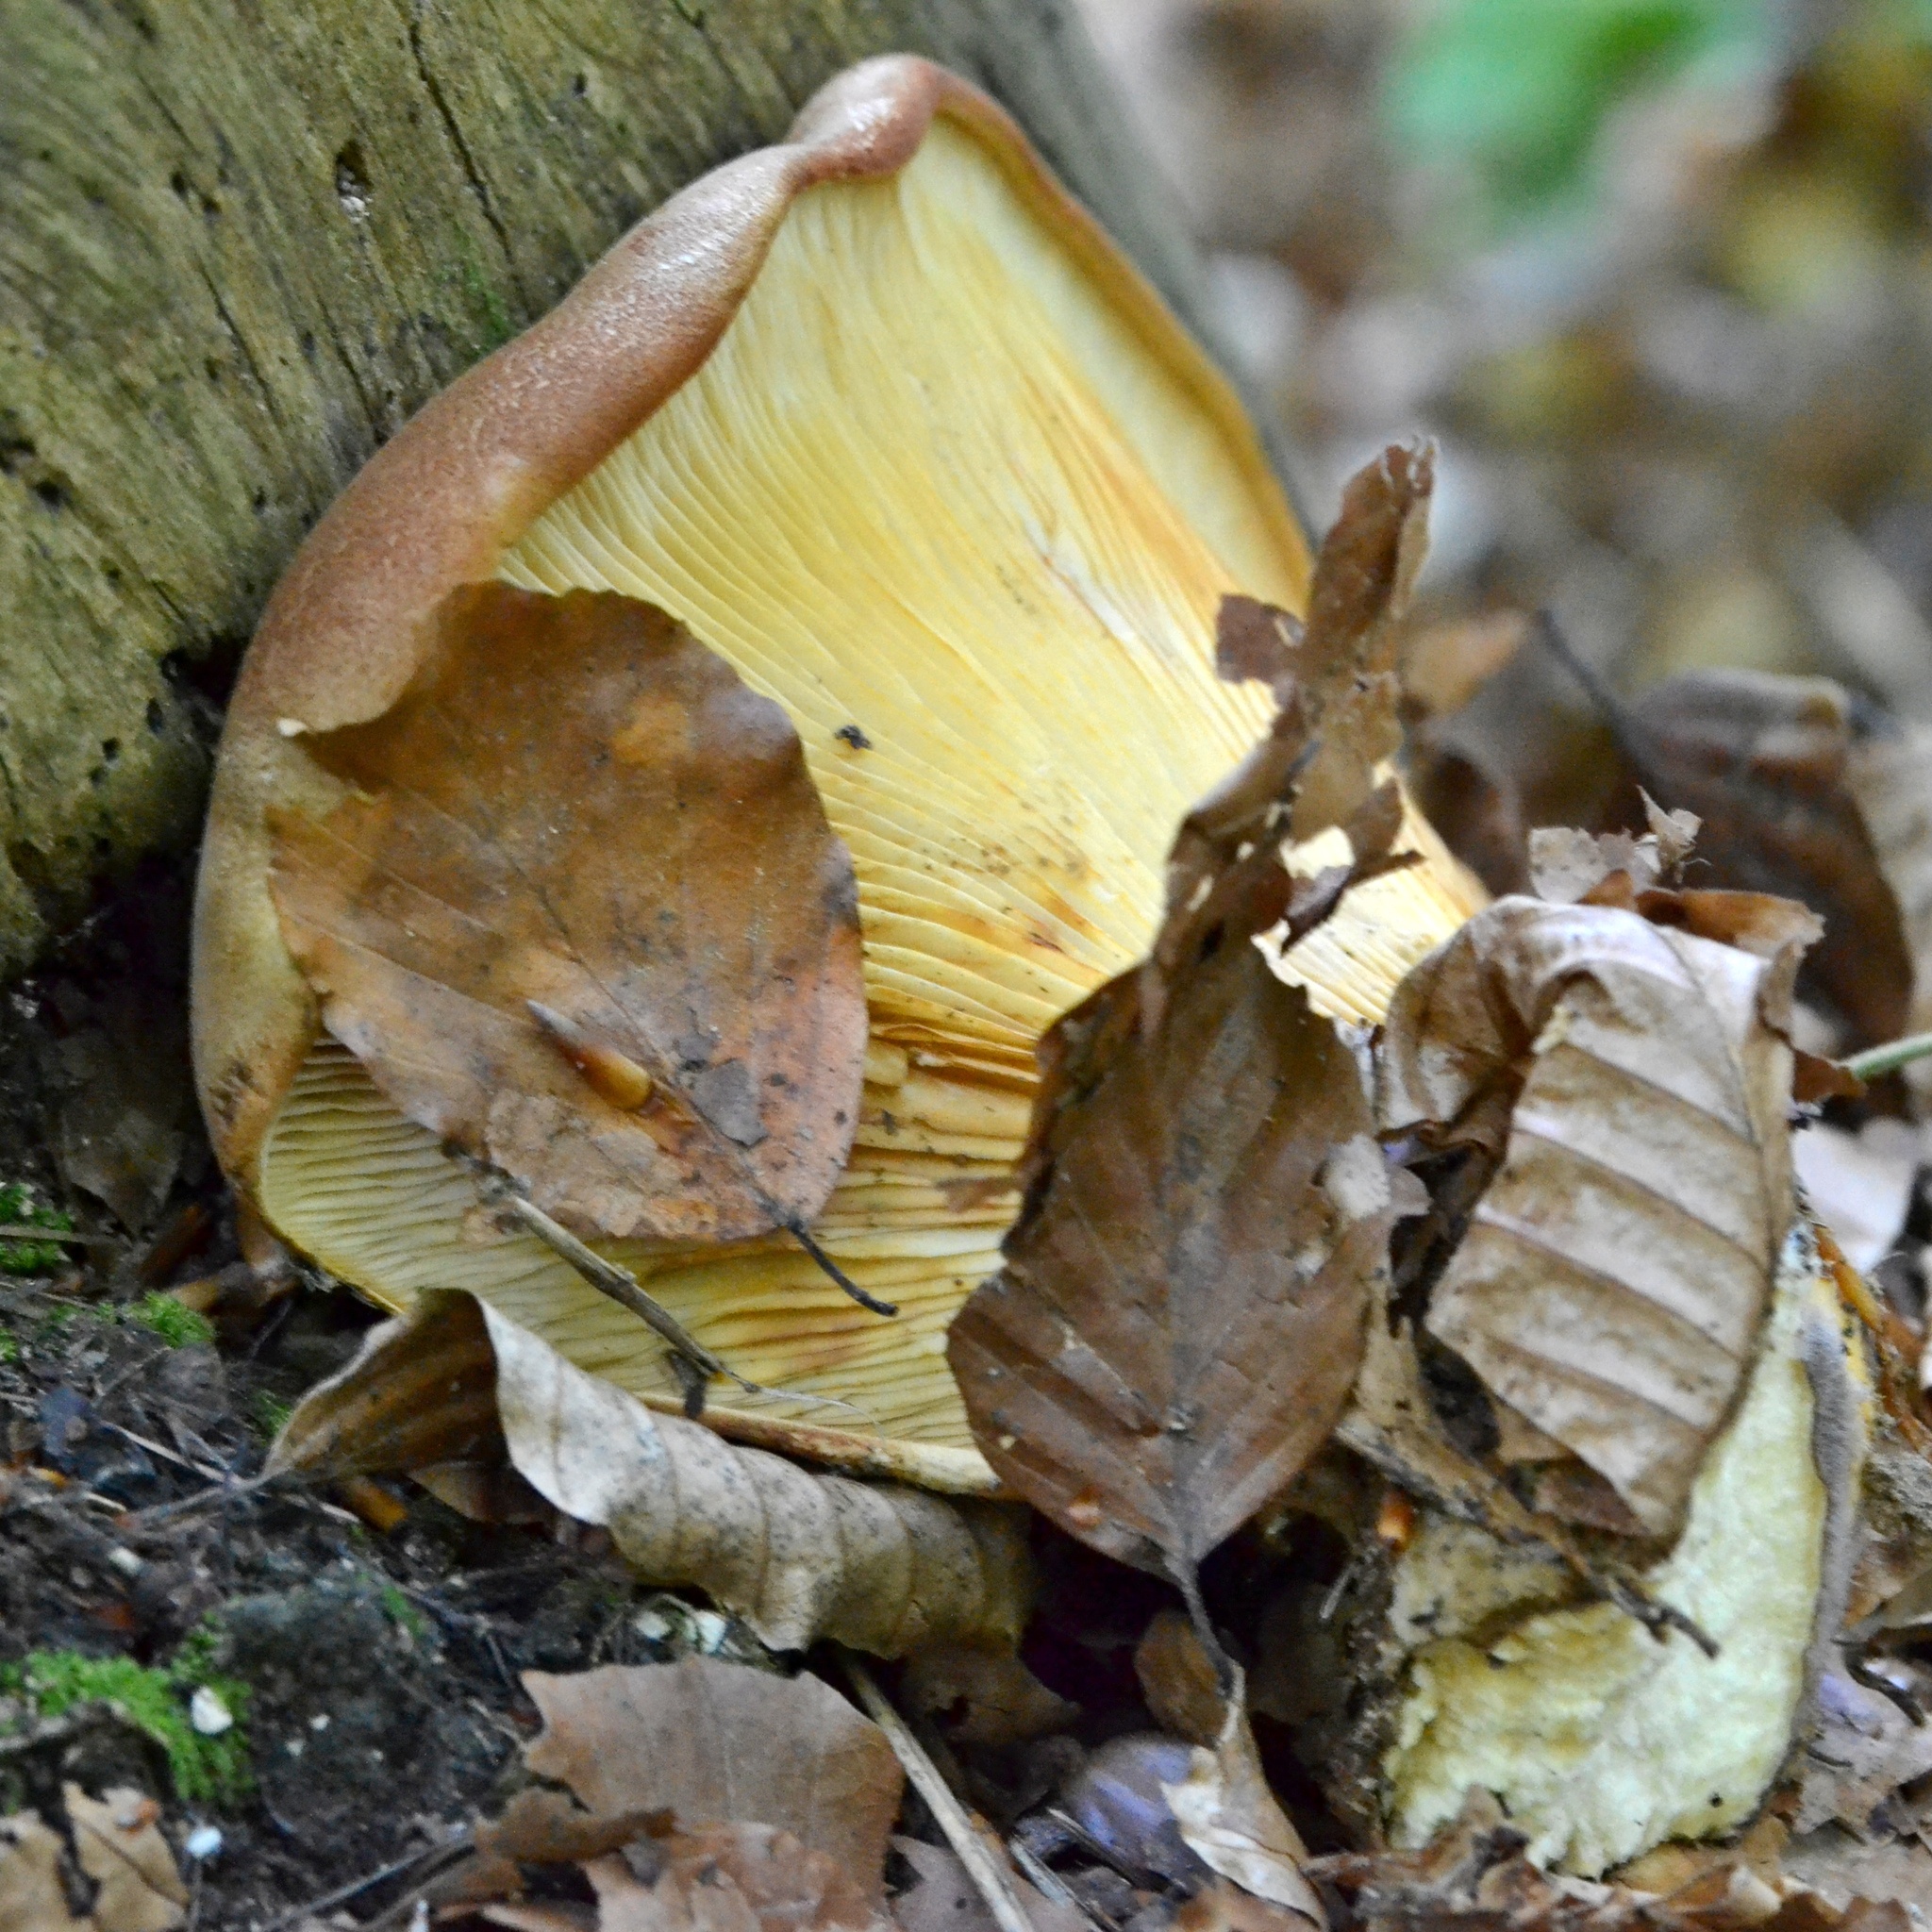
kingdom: Fungi
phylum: Basidiomycota
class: Agaricomycetes
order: Boletales
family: Tapinellaceae
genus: Tapinella
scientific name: Tapinella atrotomentosa
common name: Velvet rollrim
